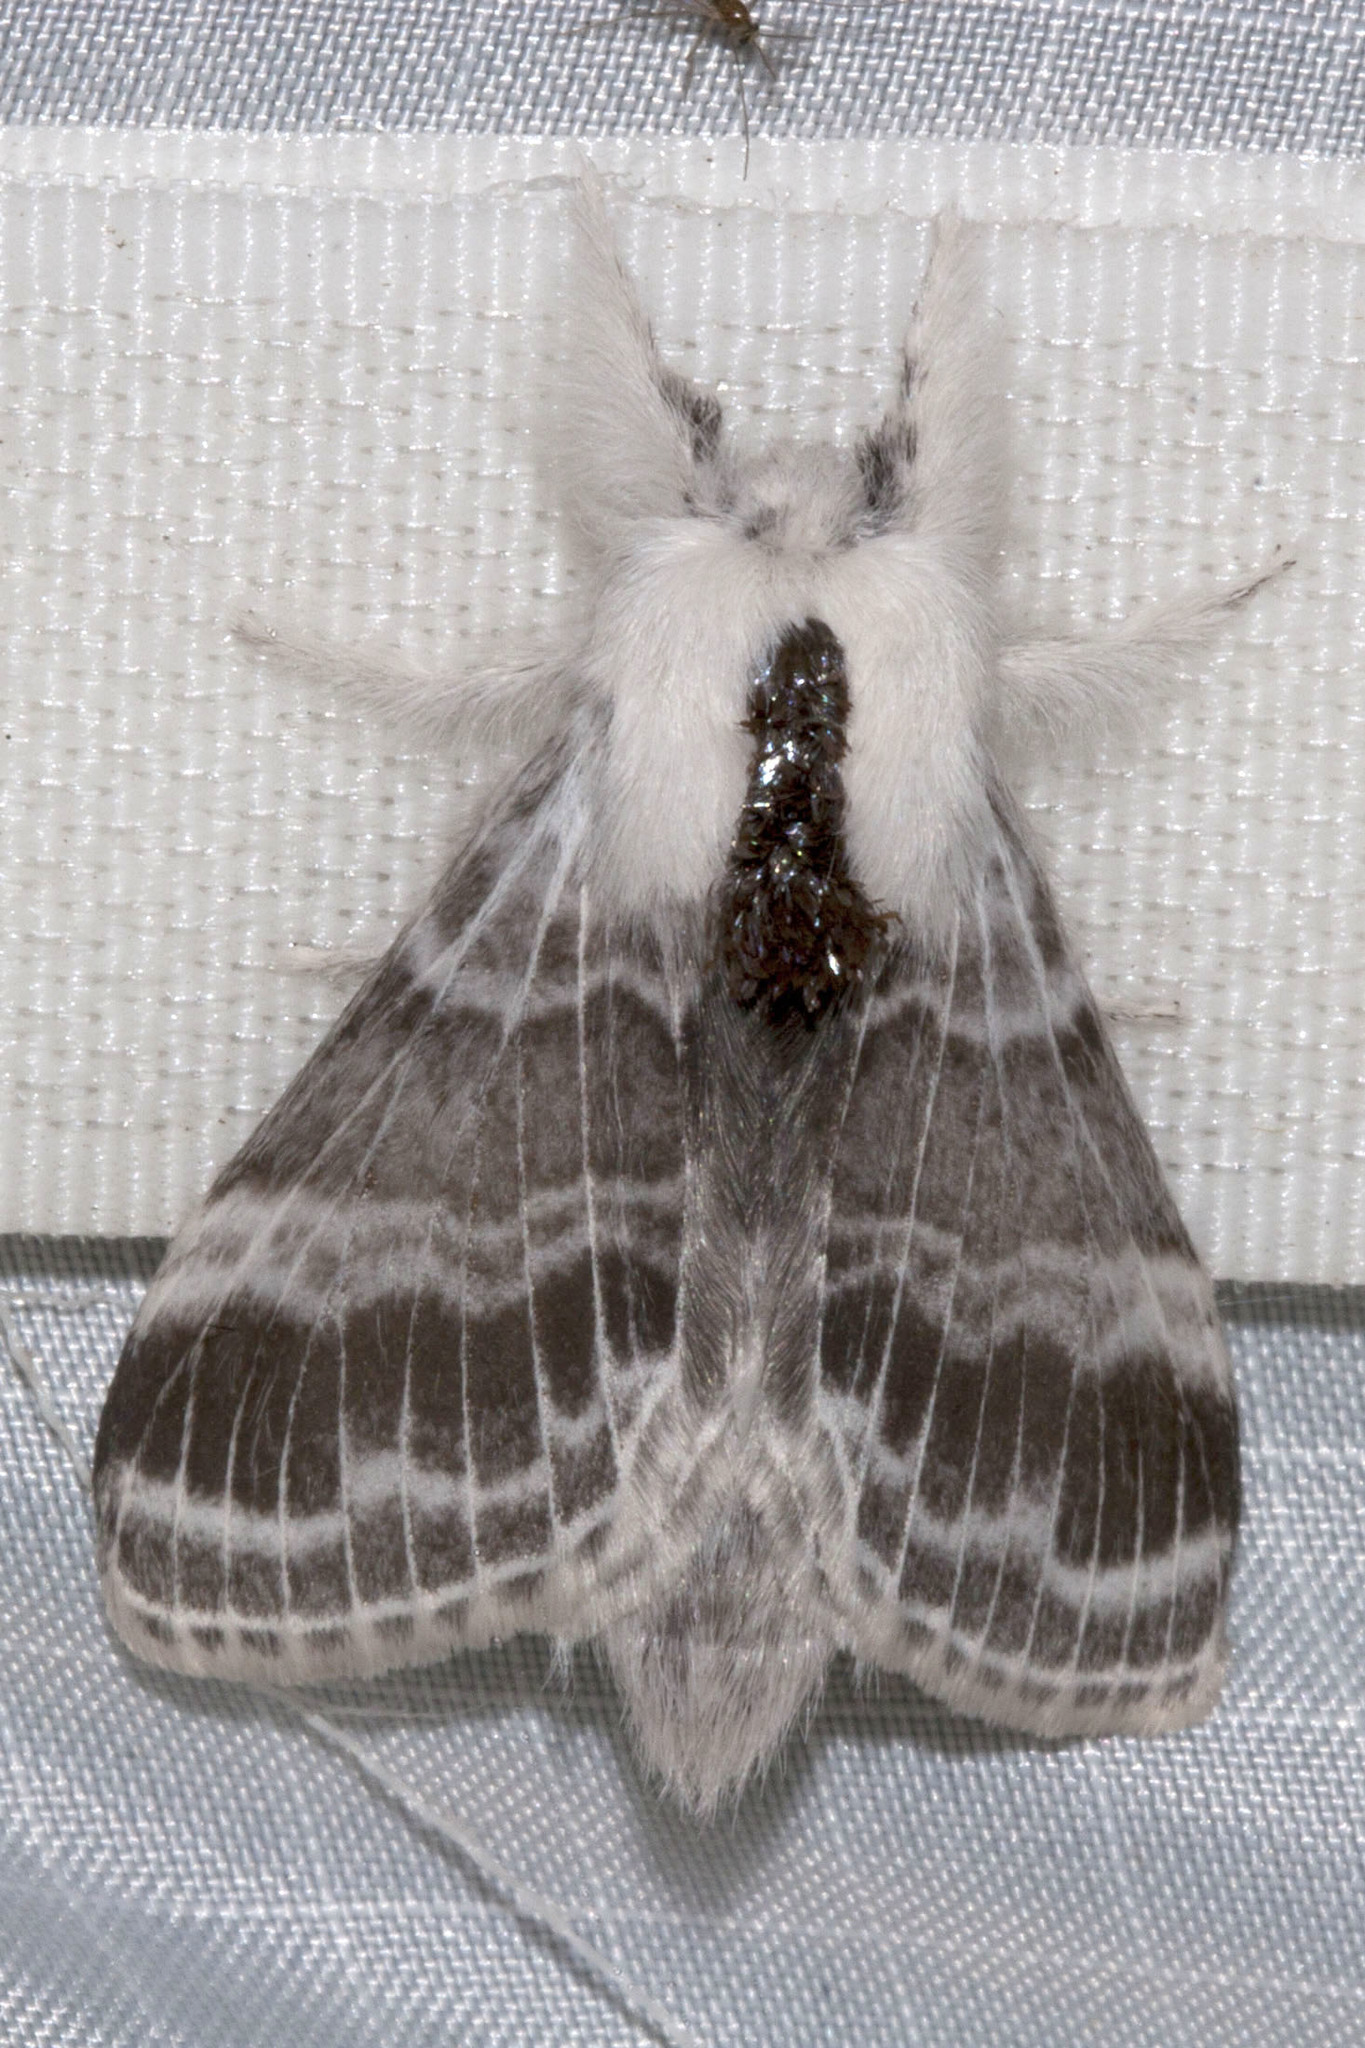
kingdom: Animalia
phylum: Arthropoda
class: Insecta
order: Lepidoptera
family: Lasiocampidae
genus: Tolype
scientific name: Tolype velleda
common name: Large tolype moth
